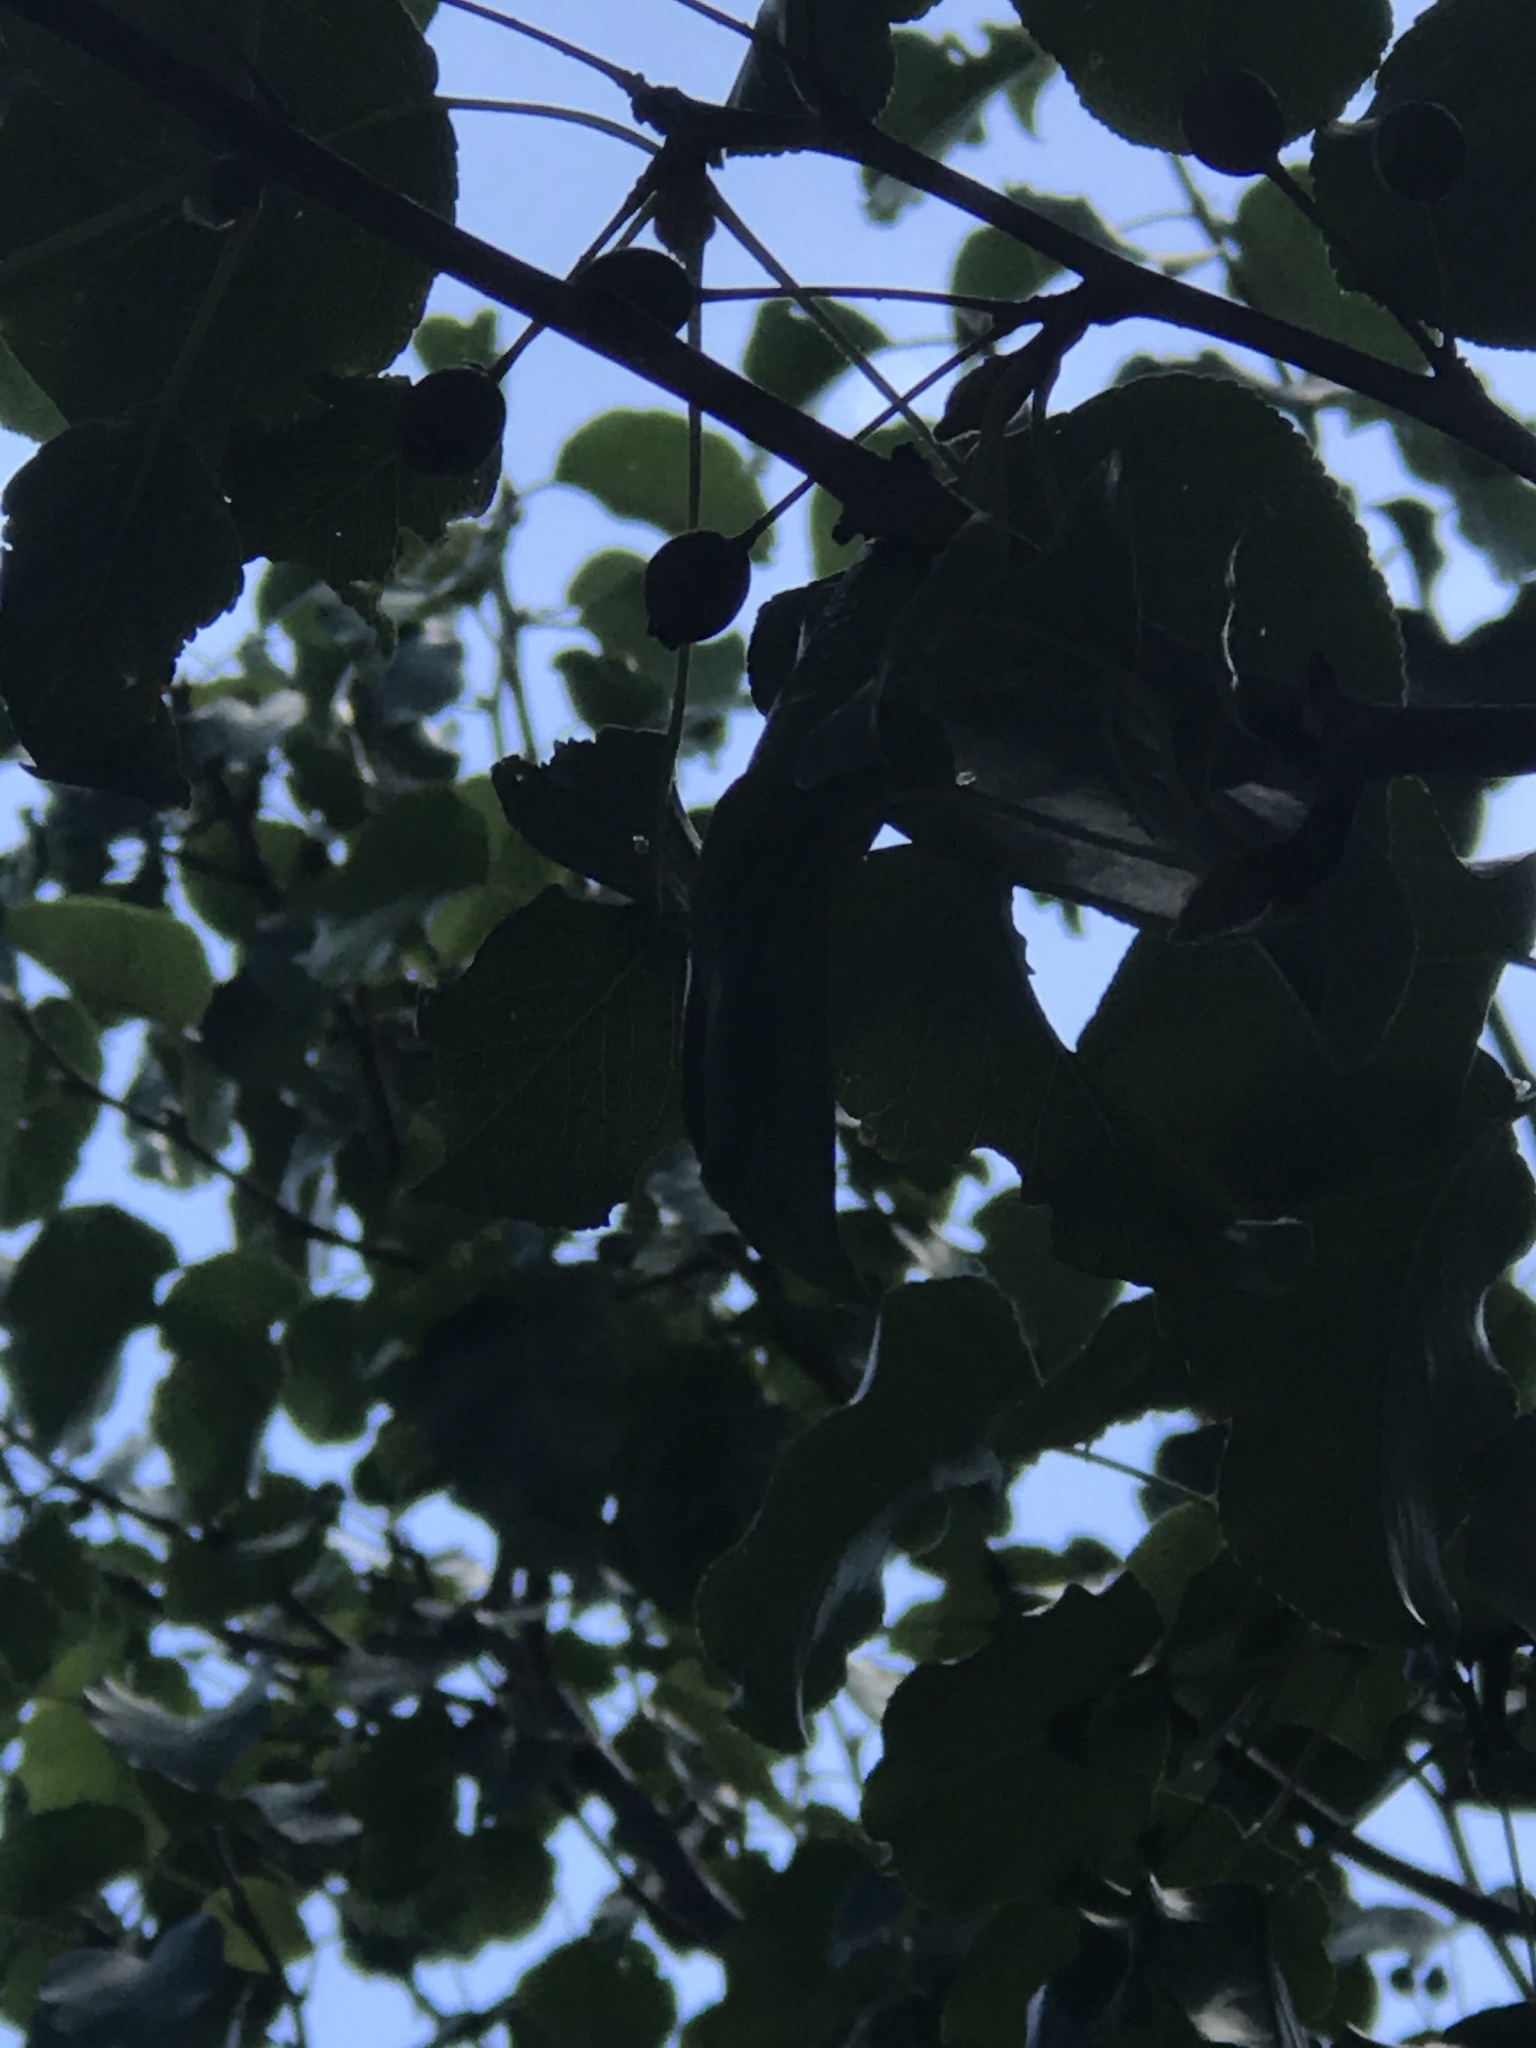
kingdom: Plantae
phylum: Tracheophyta
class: Magnoliopsida
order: Rosales
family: Rosaceae
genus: Pyrus
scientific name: Pyrus calleryana
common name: Callery pear
